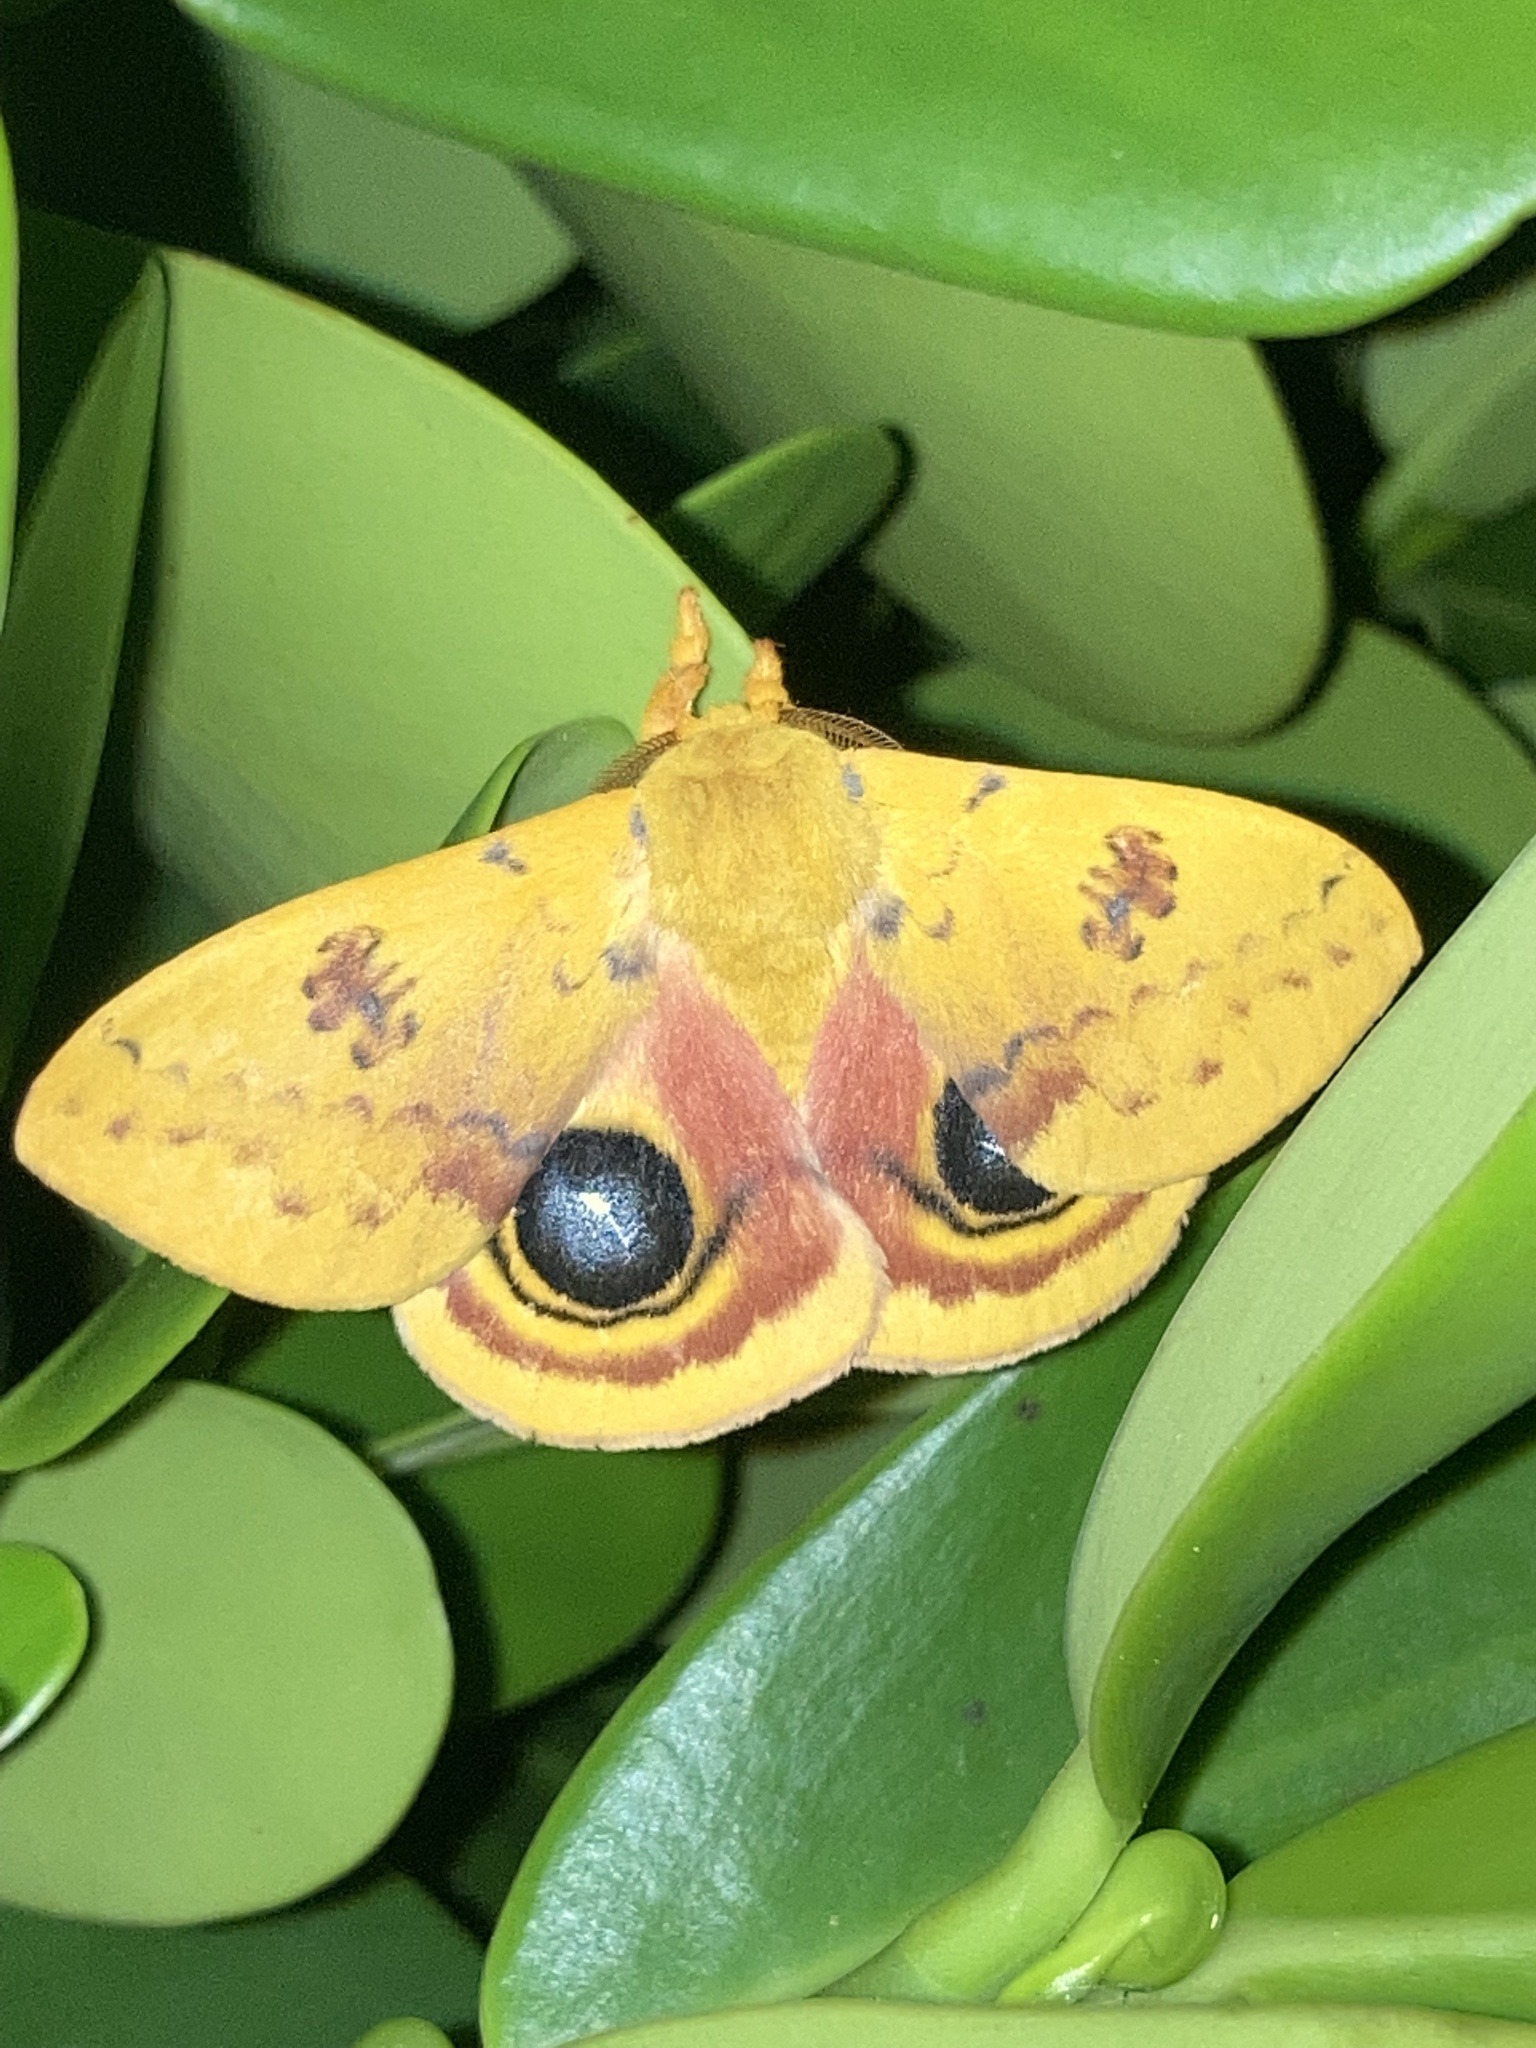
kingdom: Animalia
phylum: Arthropoda
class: Insecta
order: Lepidoptera
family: Saturniidae
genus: Automeris
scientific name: Automeris io
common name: Io moth
